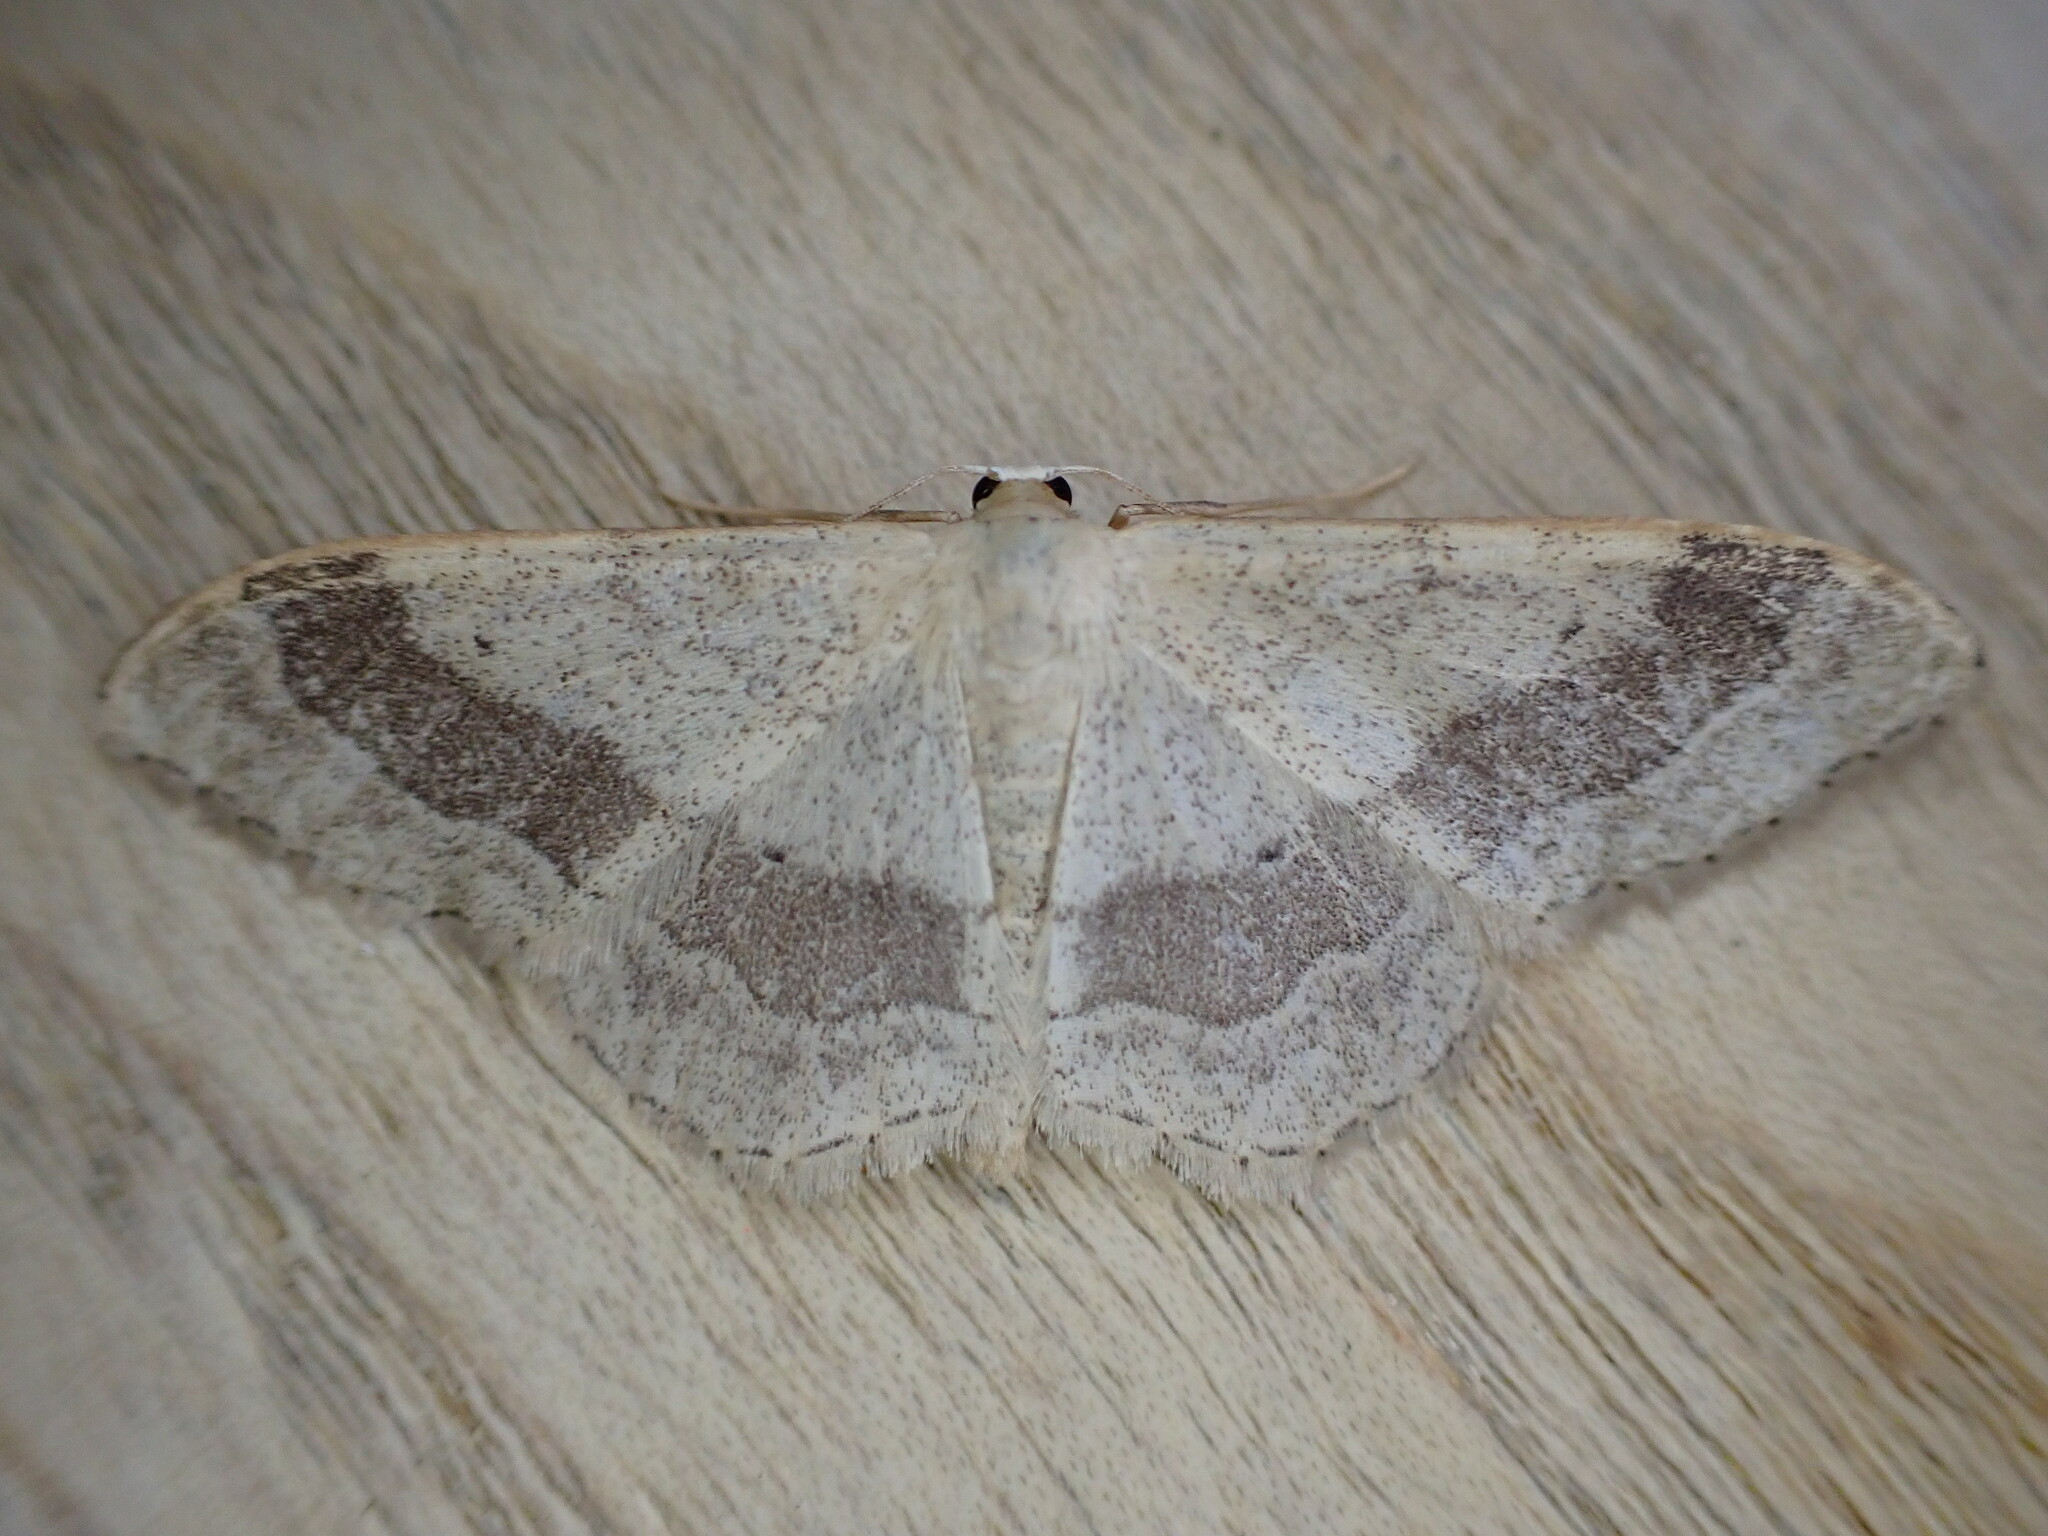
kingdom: Animalia
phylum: Arthropoda
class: Insecta
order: Lepidoptera
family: Geometridae
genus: Idaea
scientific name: Idaea aversata
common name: Riband wave
